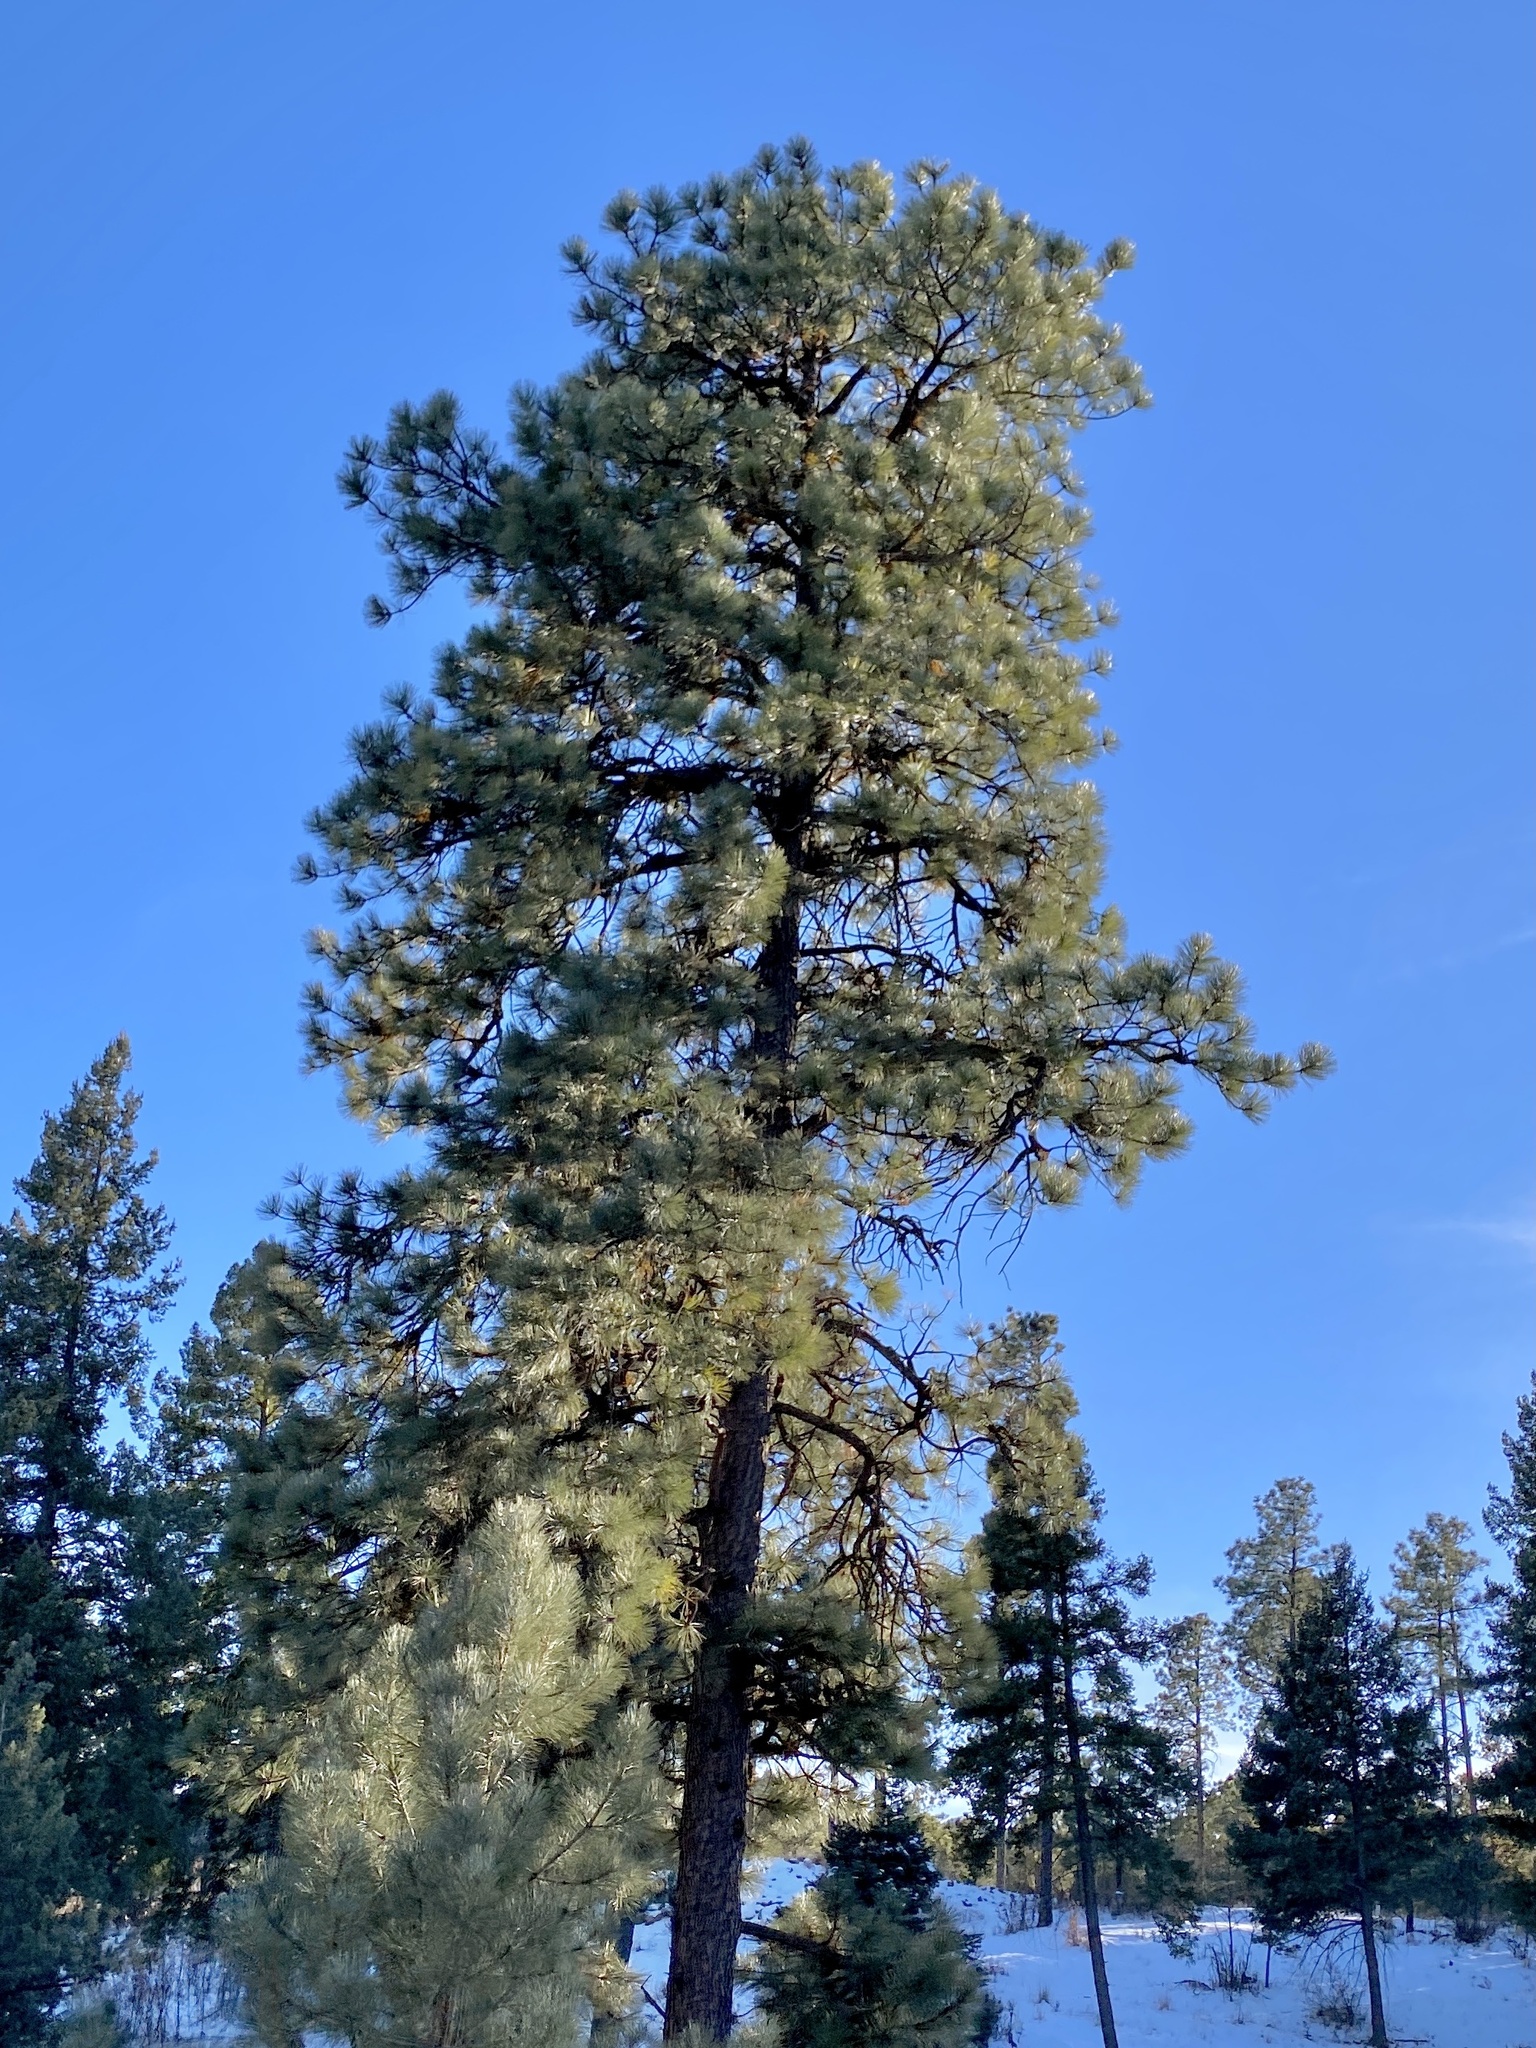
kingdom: Plantae
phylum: Tracheophyta
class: Pinopsida
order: Pinales
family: Pinaceae
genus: Pinus
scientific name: Pinus ponderosa
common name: Western yellow-pine
